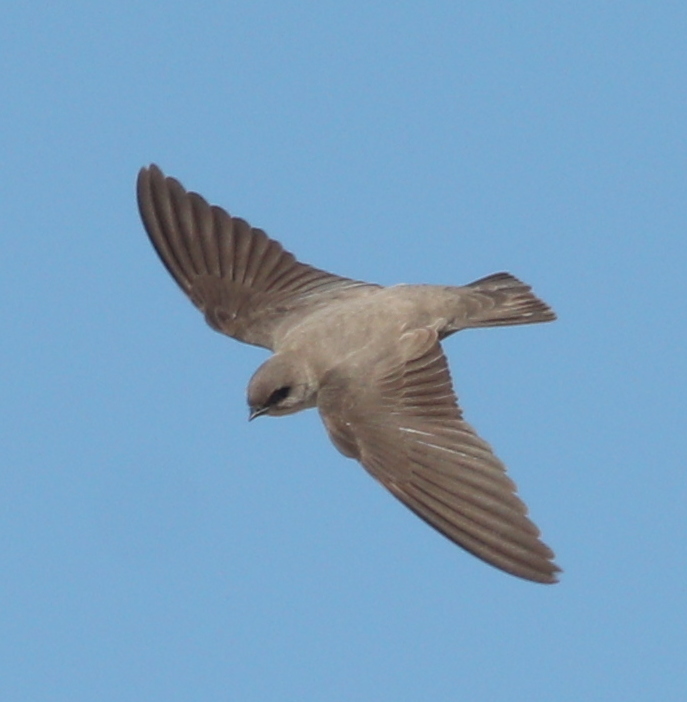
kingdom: Animalia
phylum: Chordata
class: Aves
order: Passeriformes
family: Hirundinidae
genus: Ptyonoprogne
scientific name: Ptyonoprogne fuligula
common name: Rock martin
